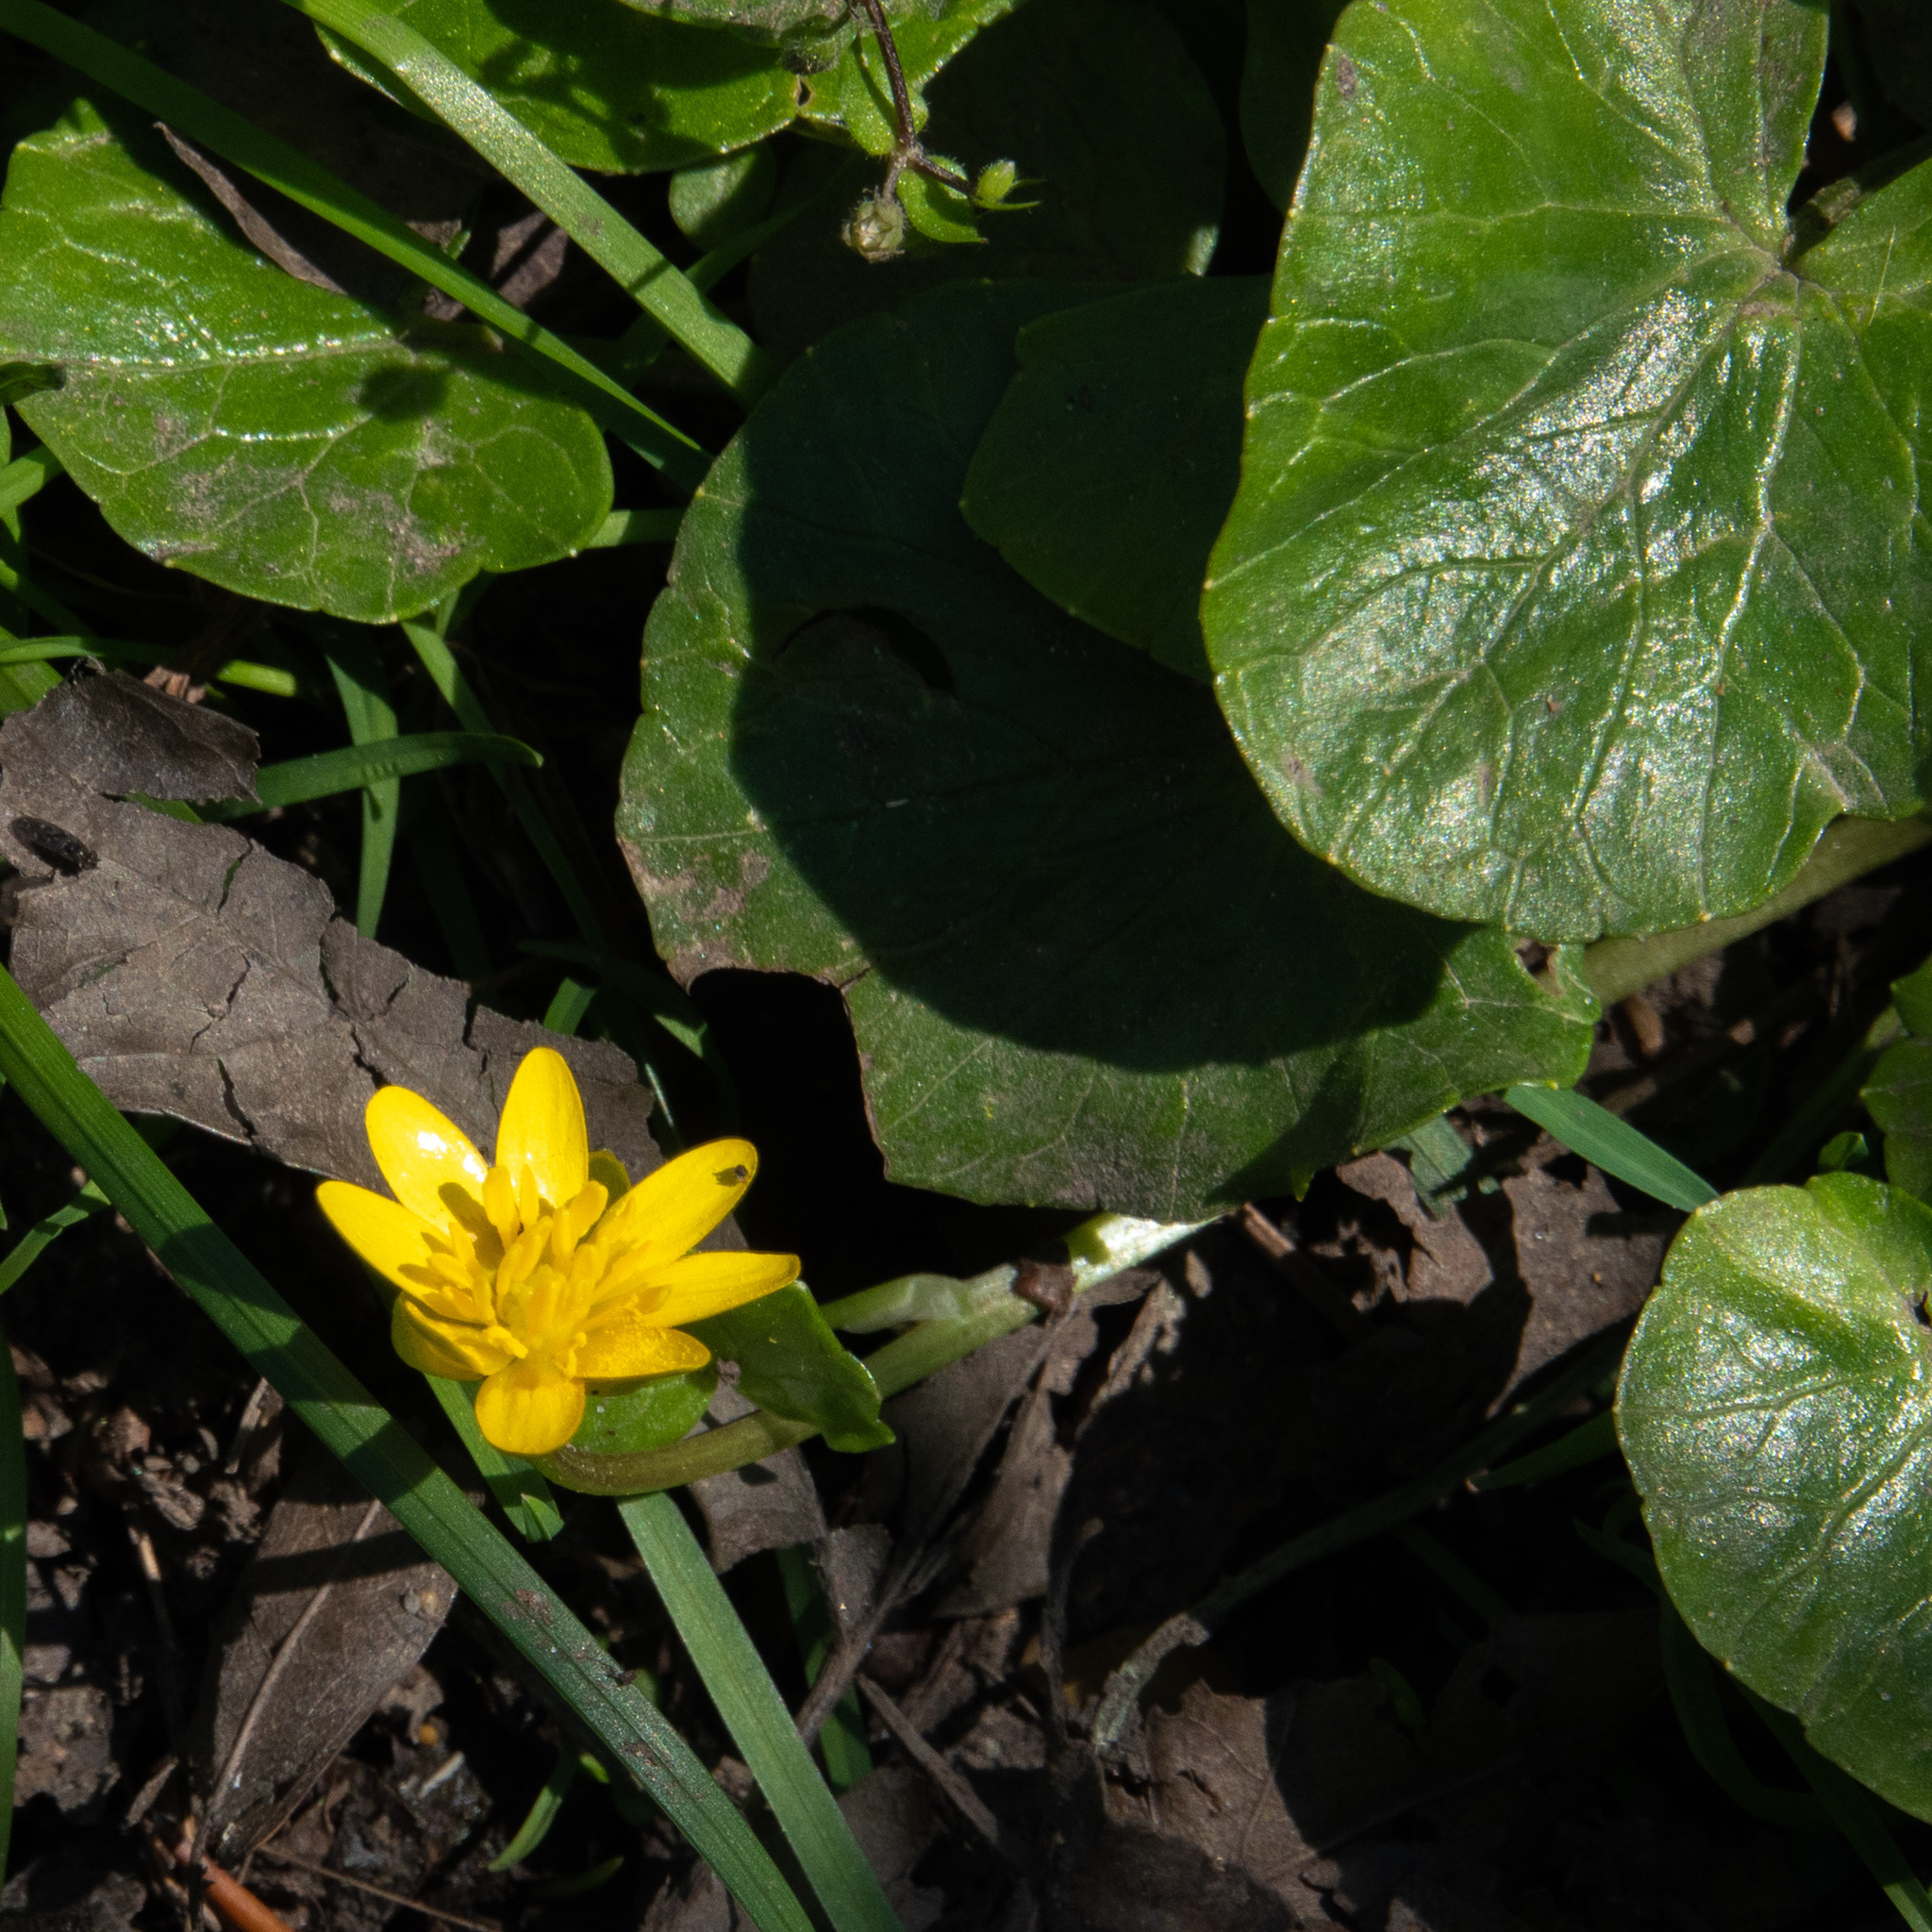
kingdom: Plantae
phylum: Tracheophyta
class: Magnoliopsida
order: Ranunculales
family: Ranunculaceae
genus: Ficaria
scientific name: Ficaria verna
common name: Lesser celandine
